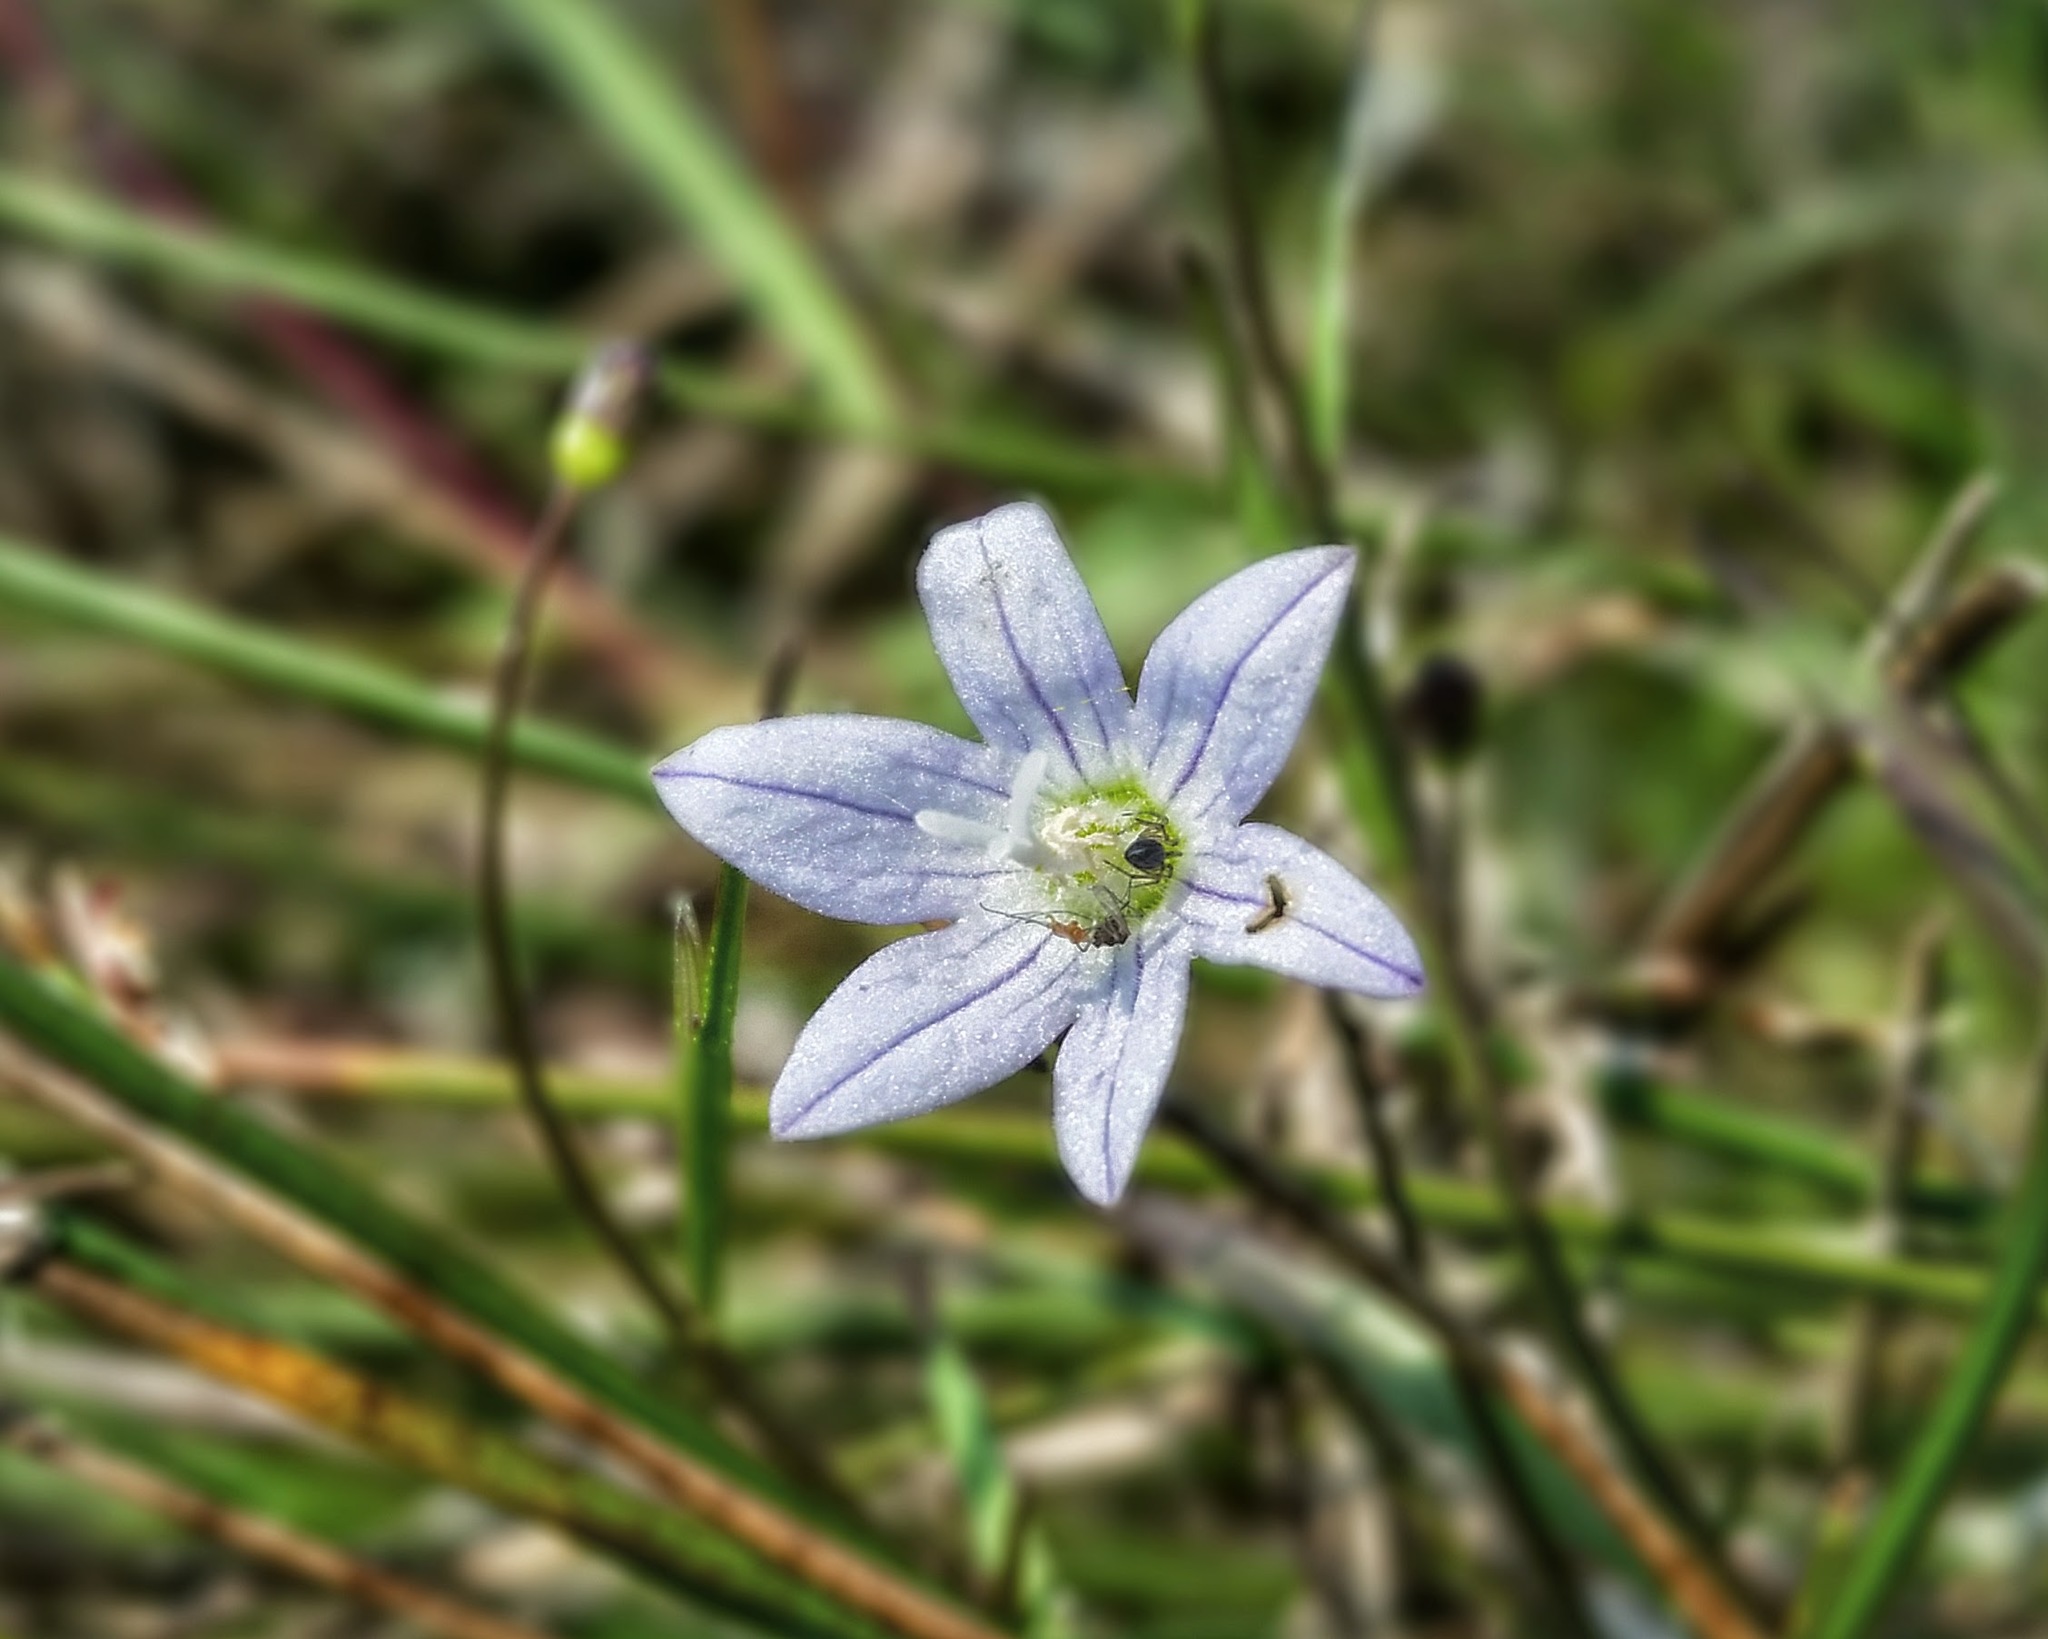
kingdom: Plantae
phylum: Tracheophyta
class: Magnoliopsida
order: Asterales
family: Campanulaceae
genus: Palustricodon
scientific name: Palustricodon aparinoides
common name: Bedstraw bellflower
